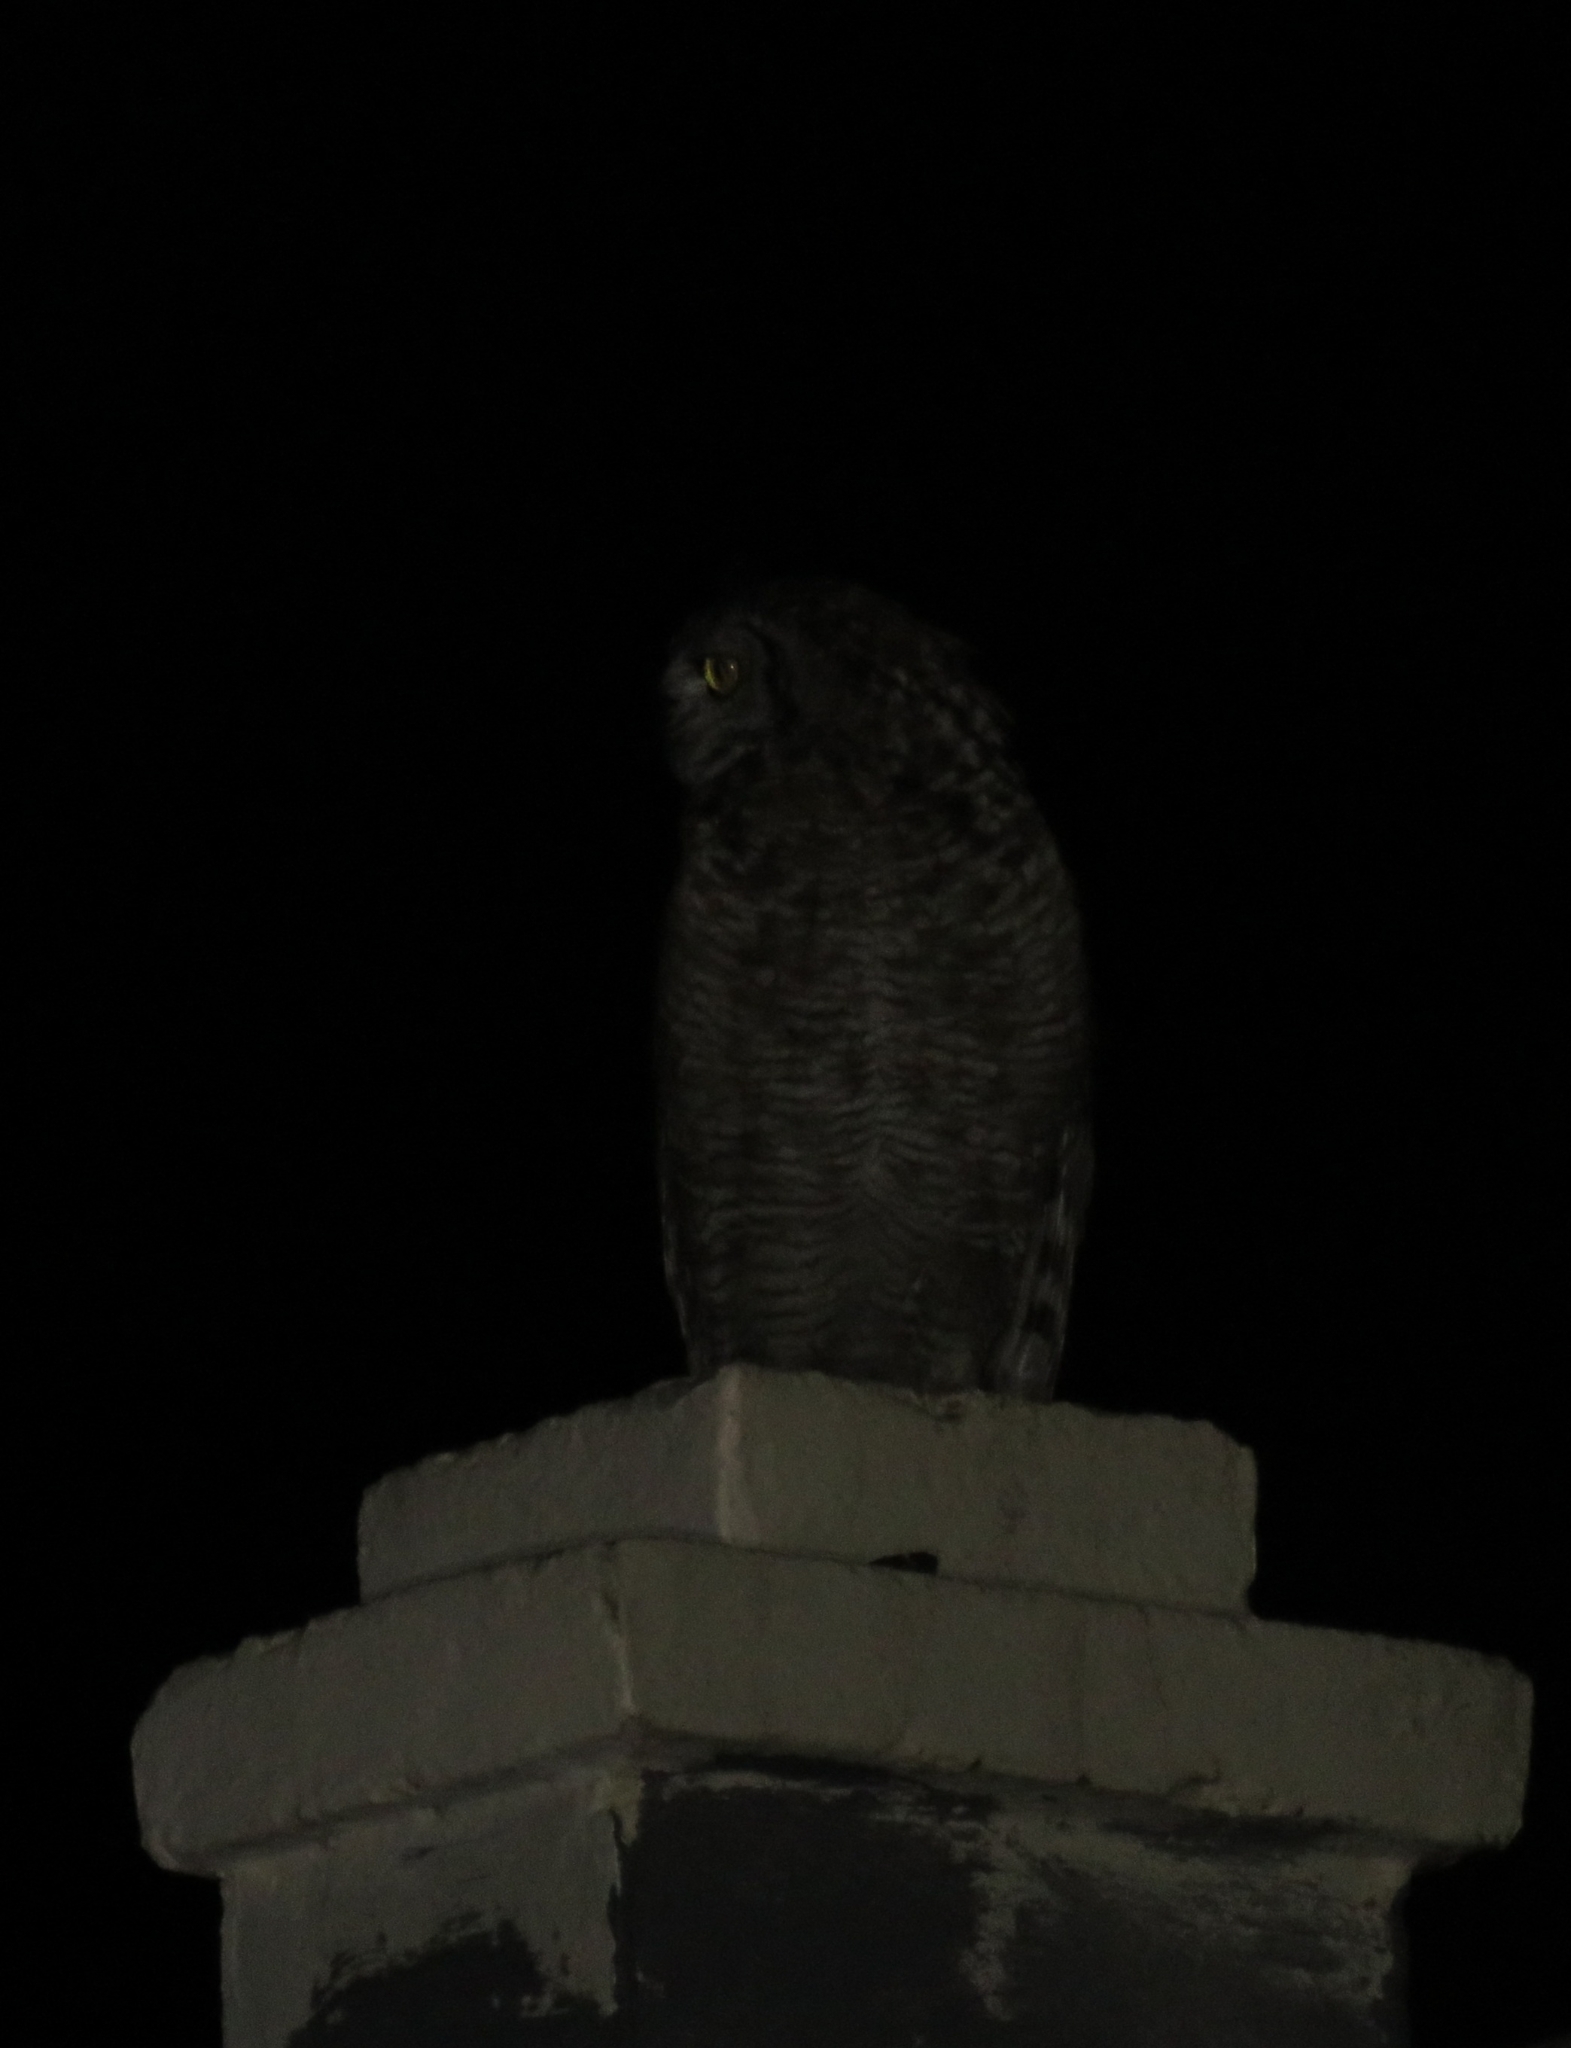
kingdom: Animalia
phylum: Chordata
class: Aves
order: Strigiformes
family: Strigidae
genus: Bubo
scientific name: Bubo africanus
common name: Spotted eagle-owl
